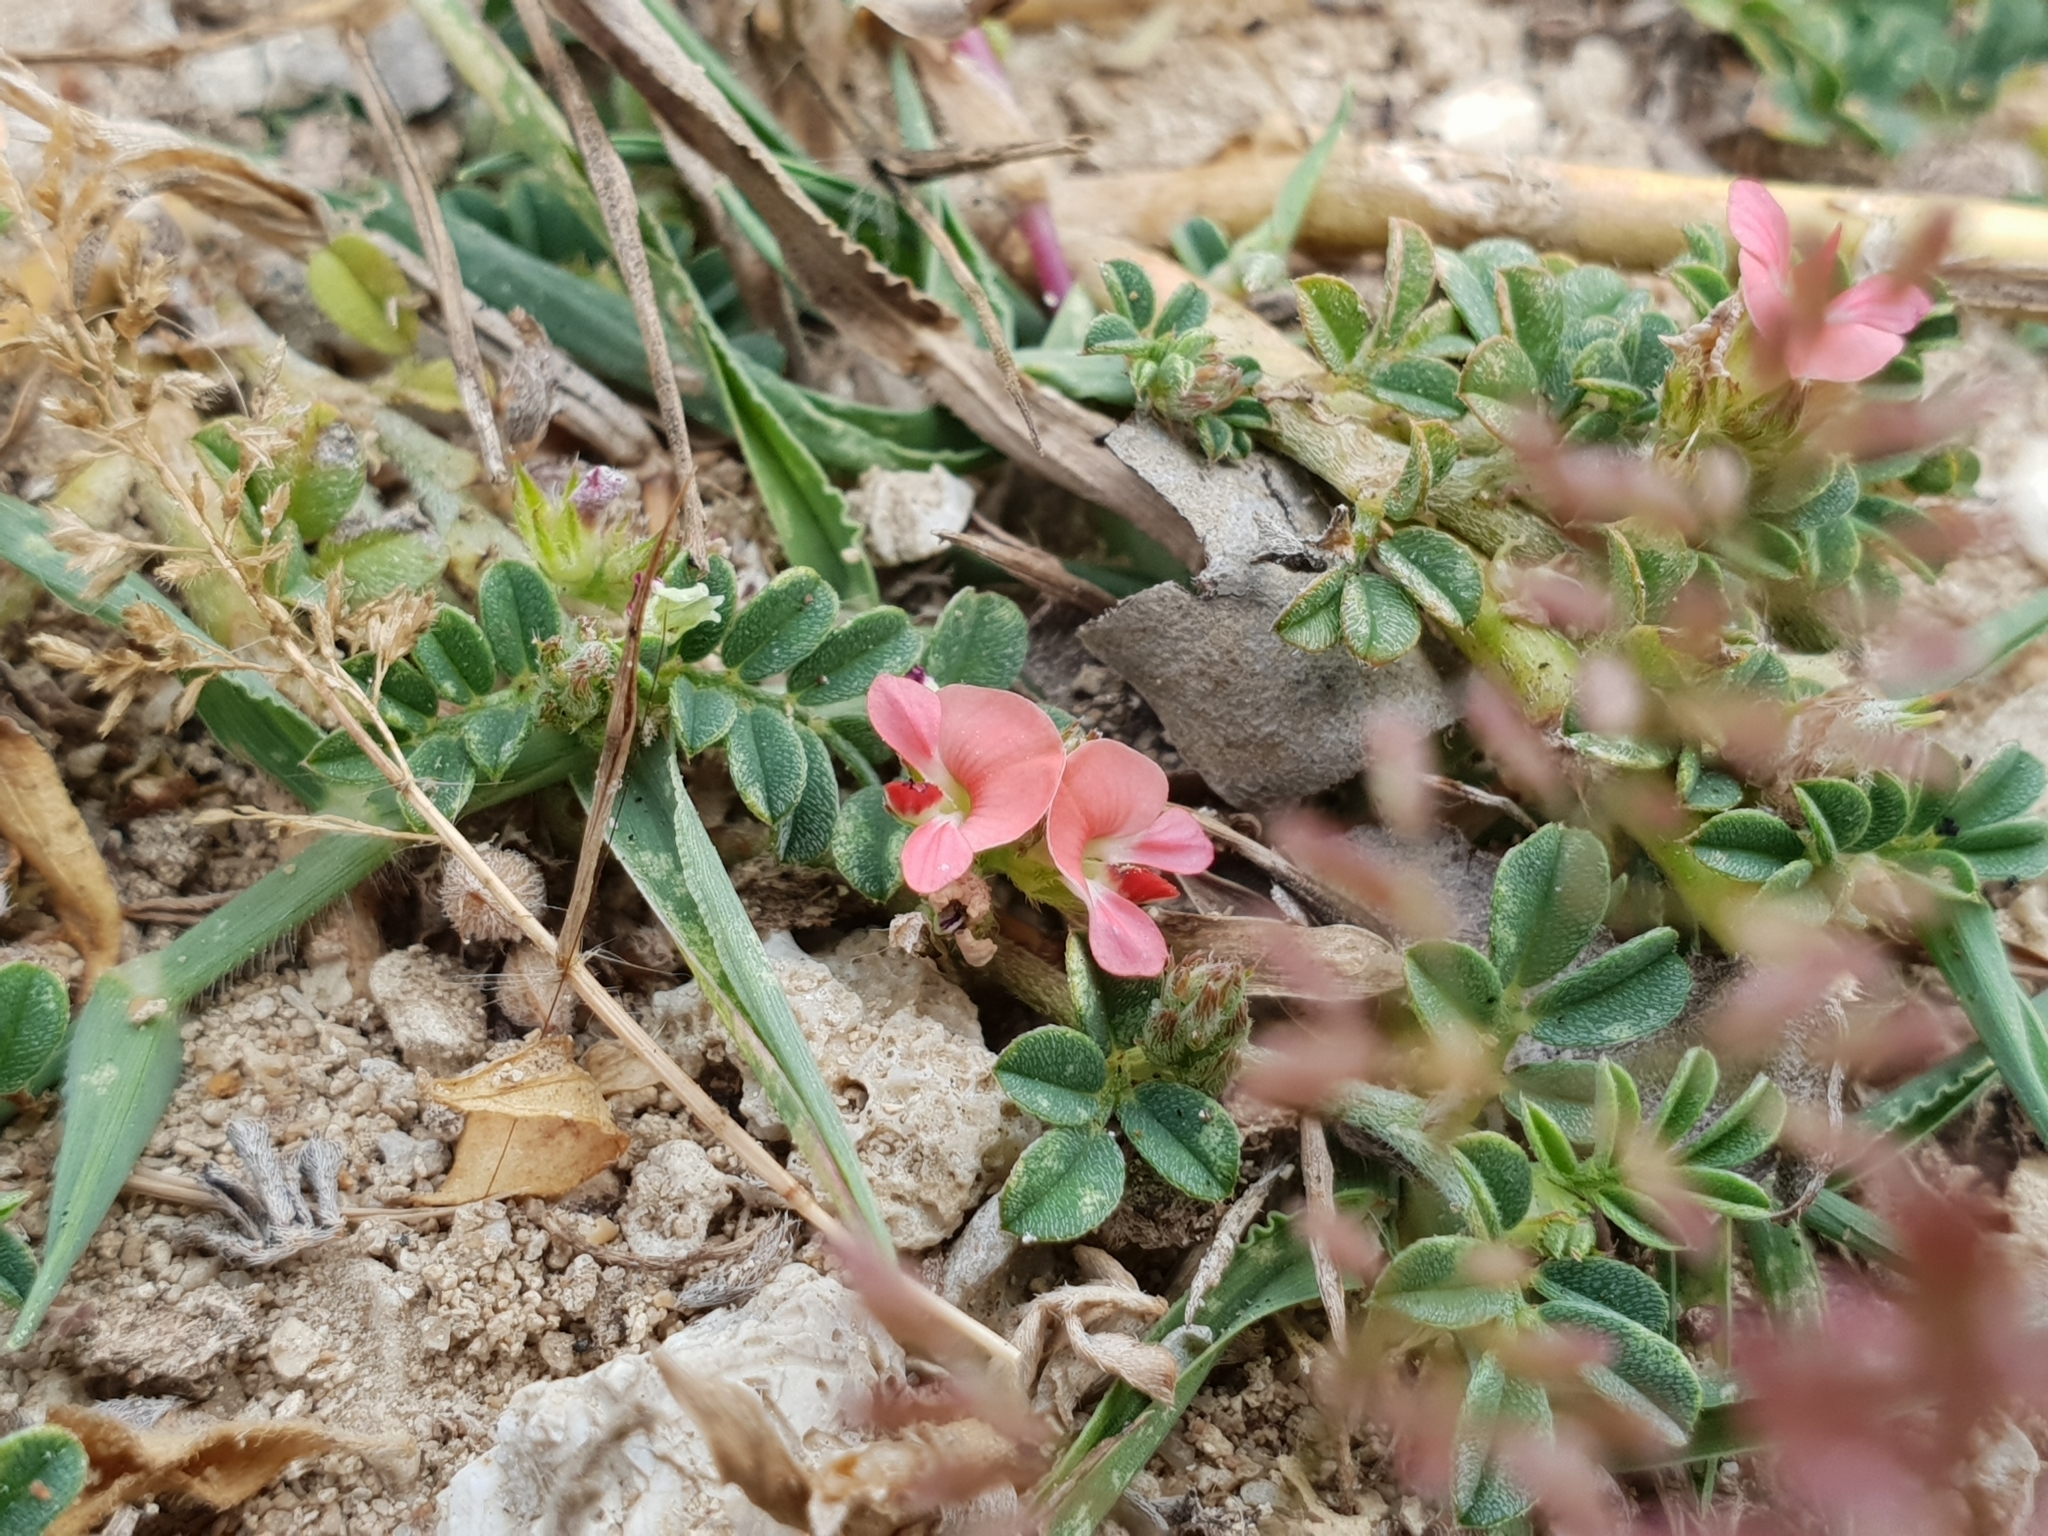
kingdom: Plantae
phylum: Tracheophyta
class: Magnoliopsida
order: Fabales
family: Fabaceae
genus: Indigofera
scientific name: Indigofera linnaei
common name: Nine-leaf indigo
